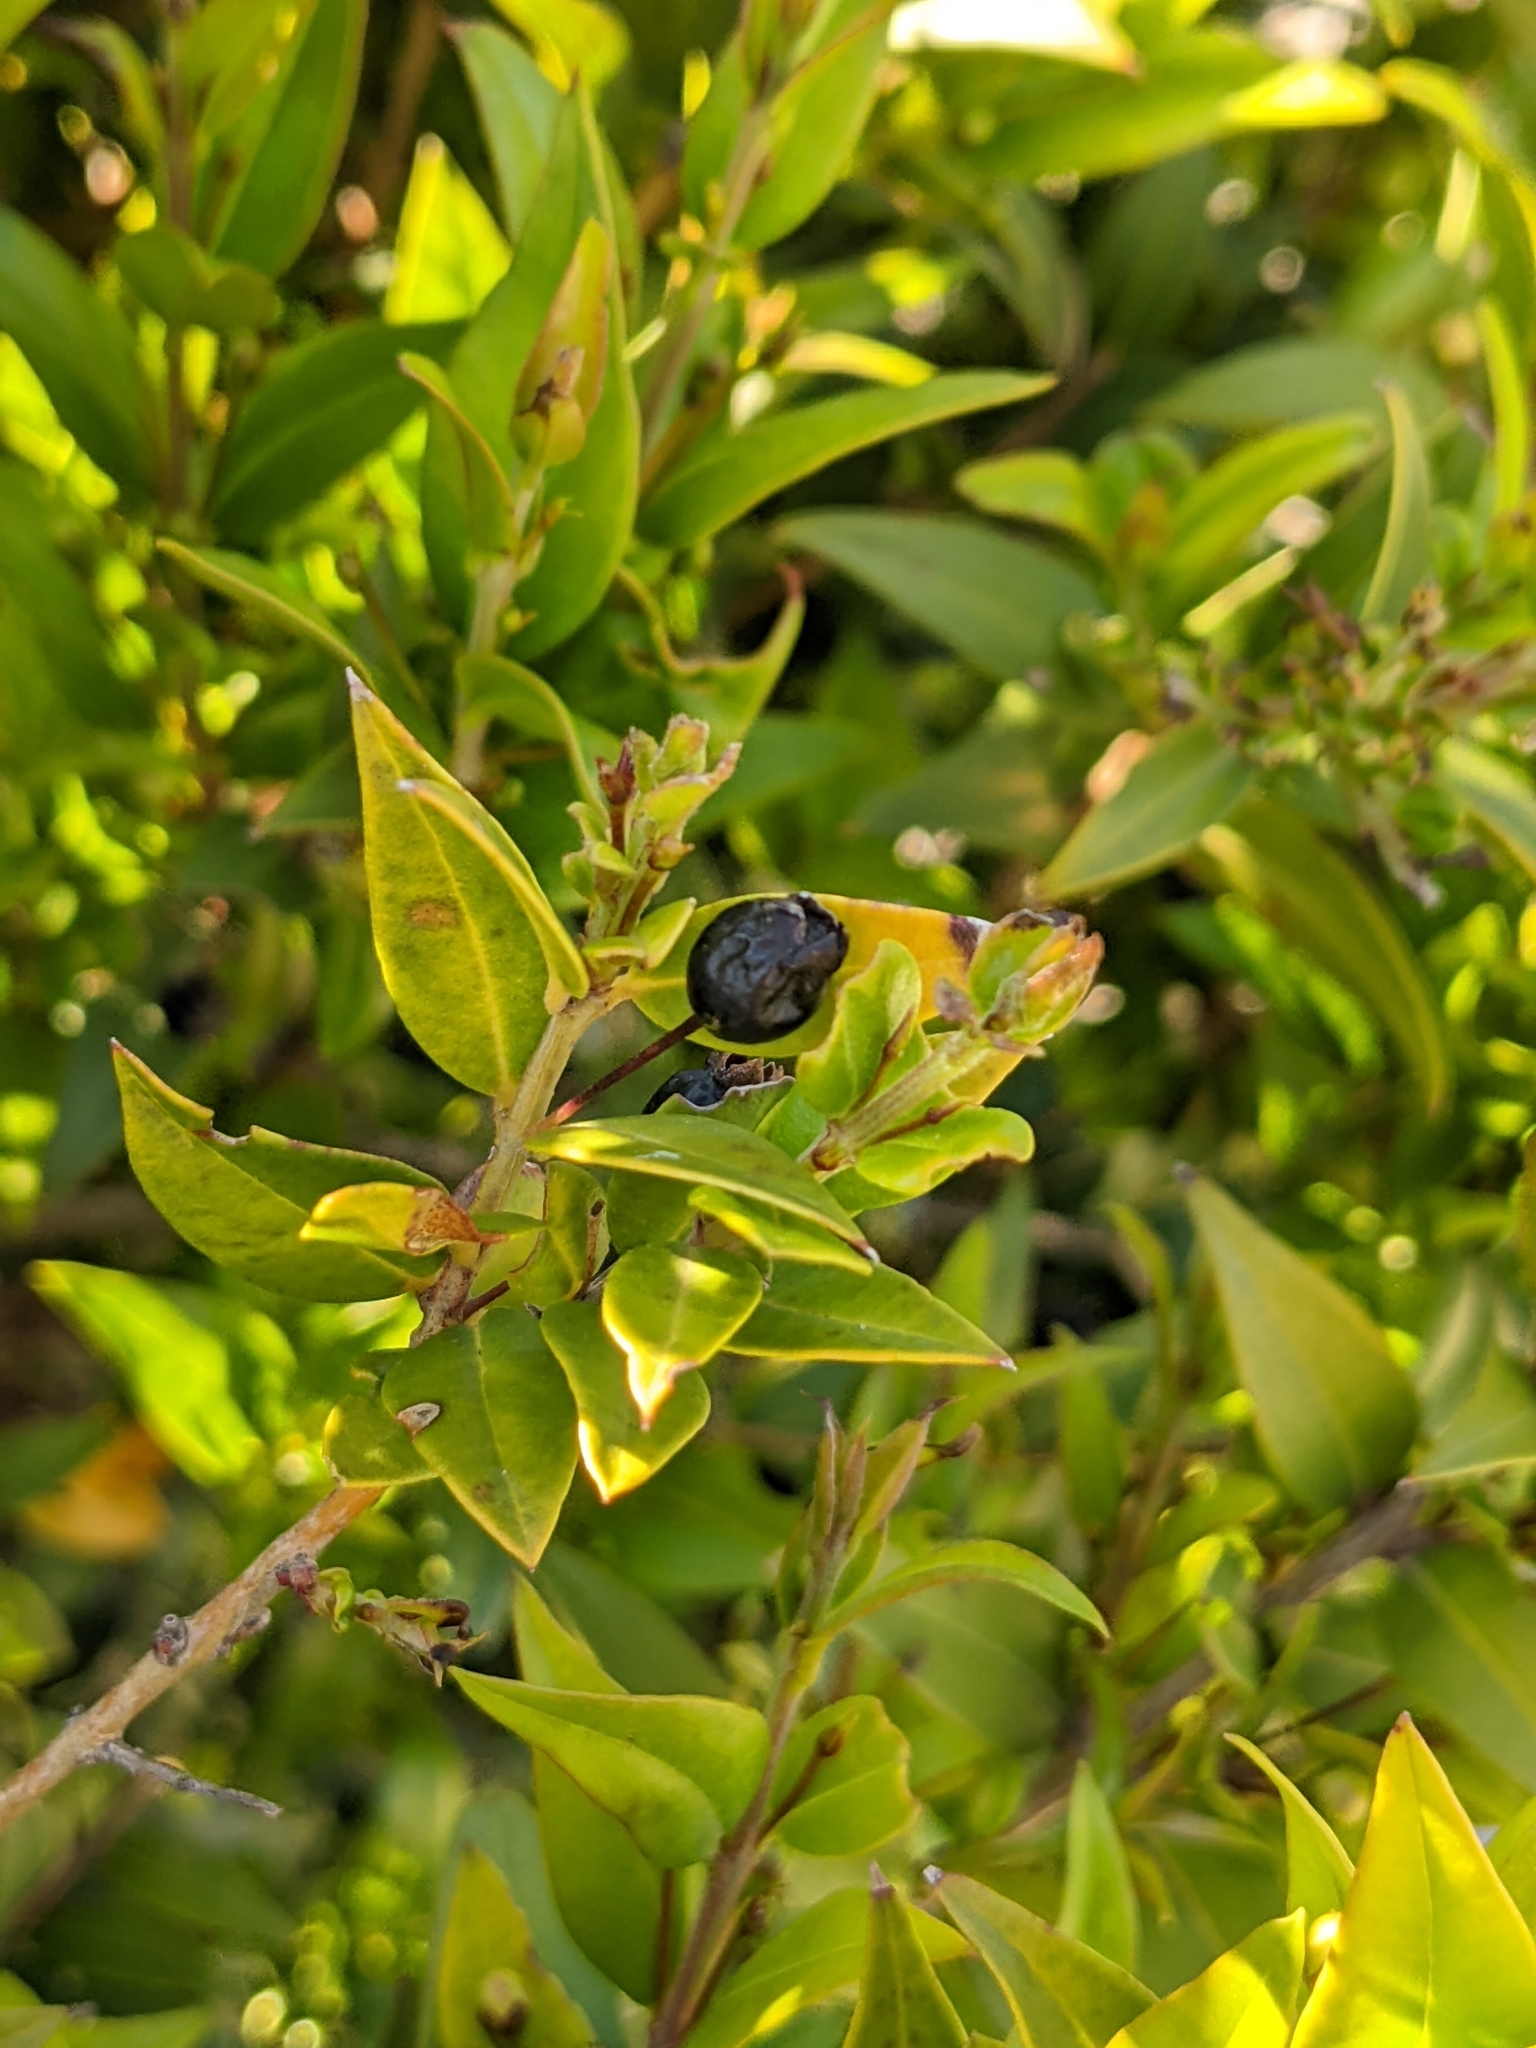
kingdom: Plantae
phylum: Tracheophyta
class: Magnoliopsida
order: Myrtales
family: Myrtaceae
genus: Myrtus
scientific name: Myrtus communis
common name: Myrtle
